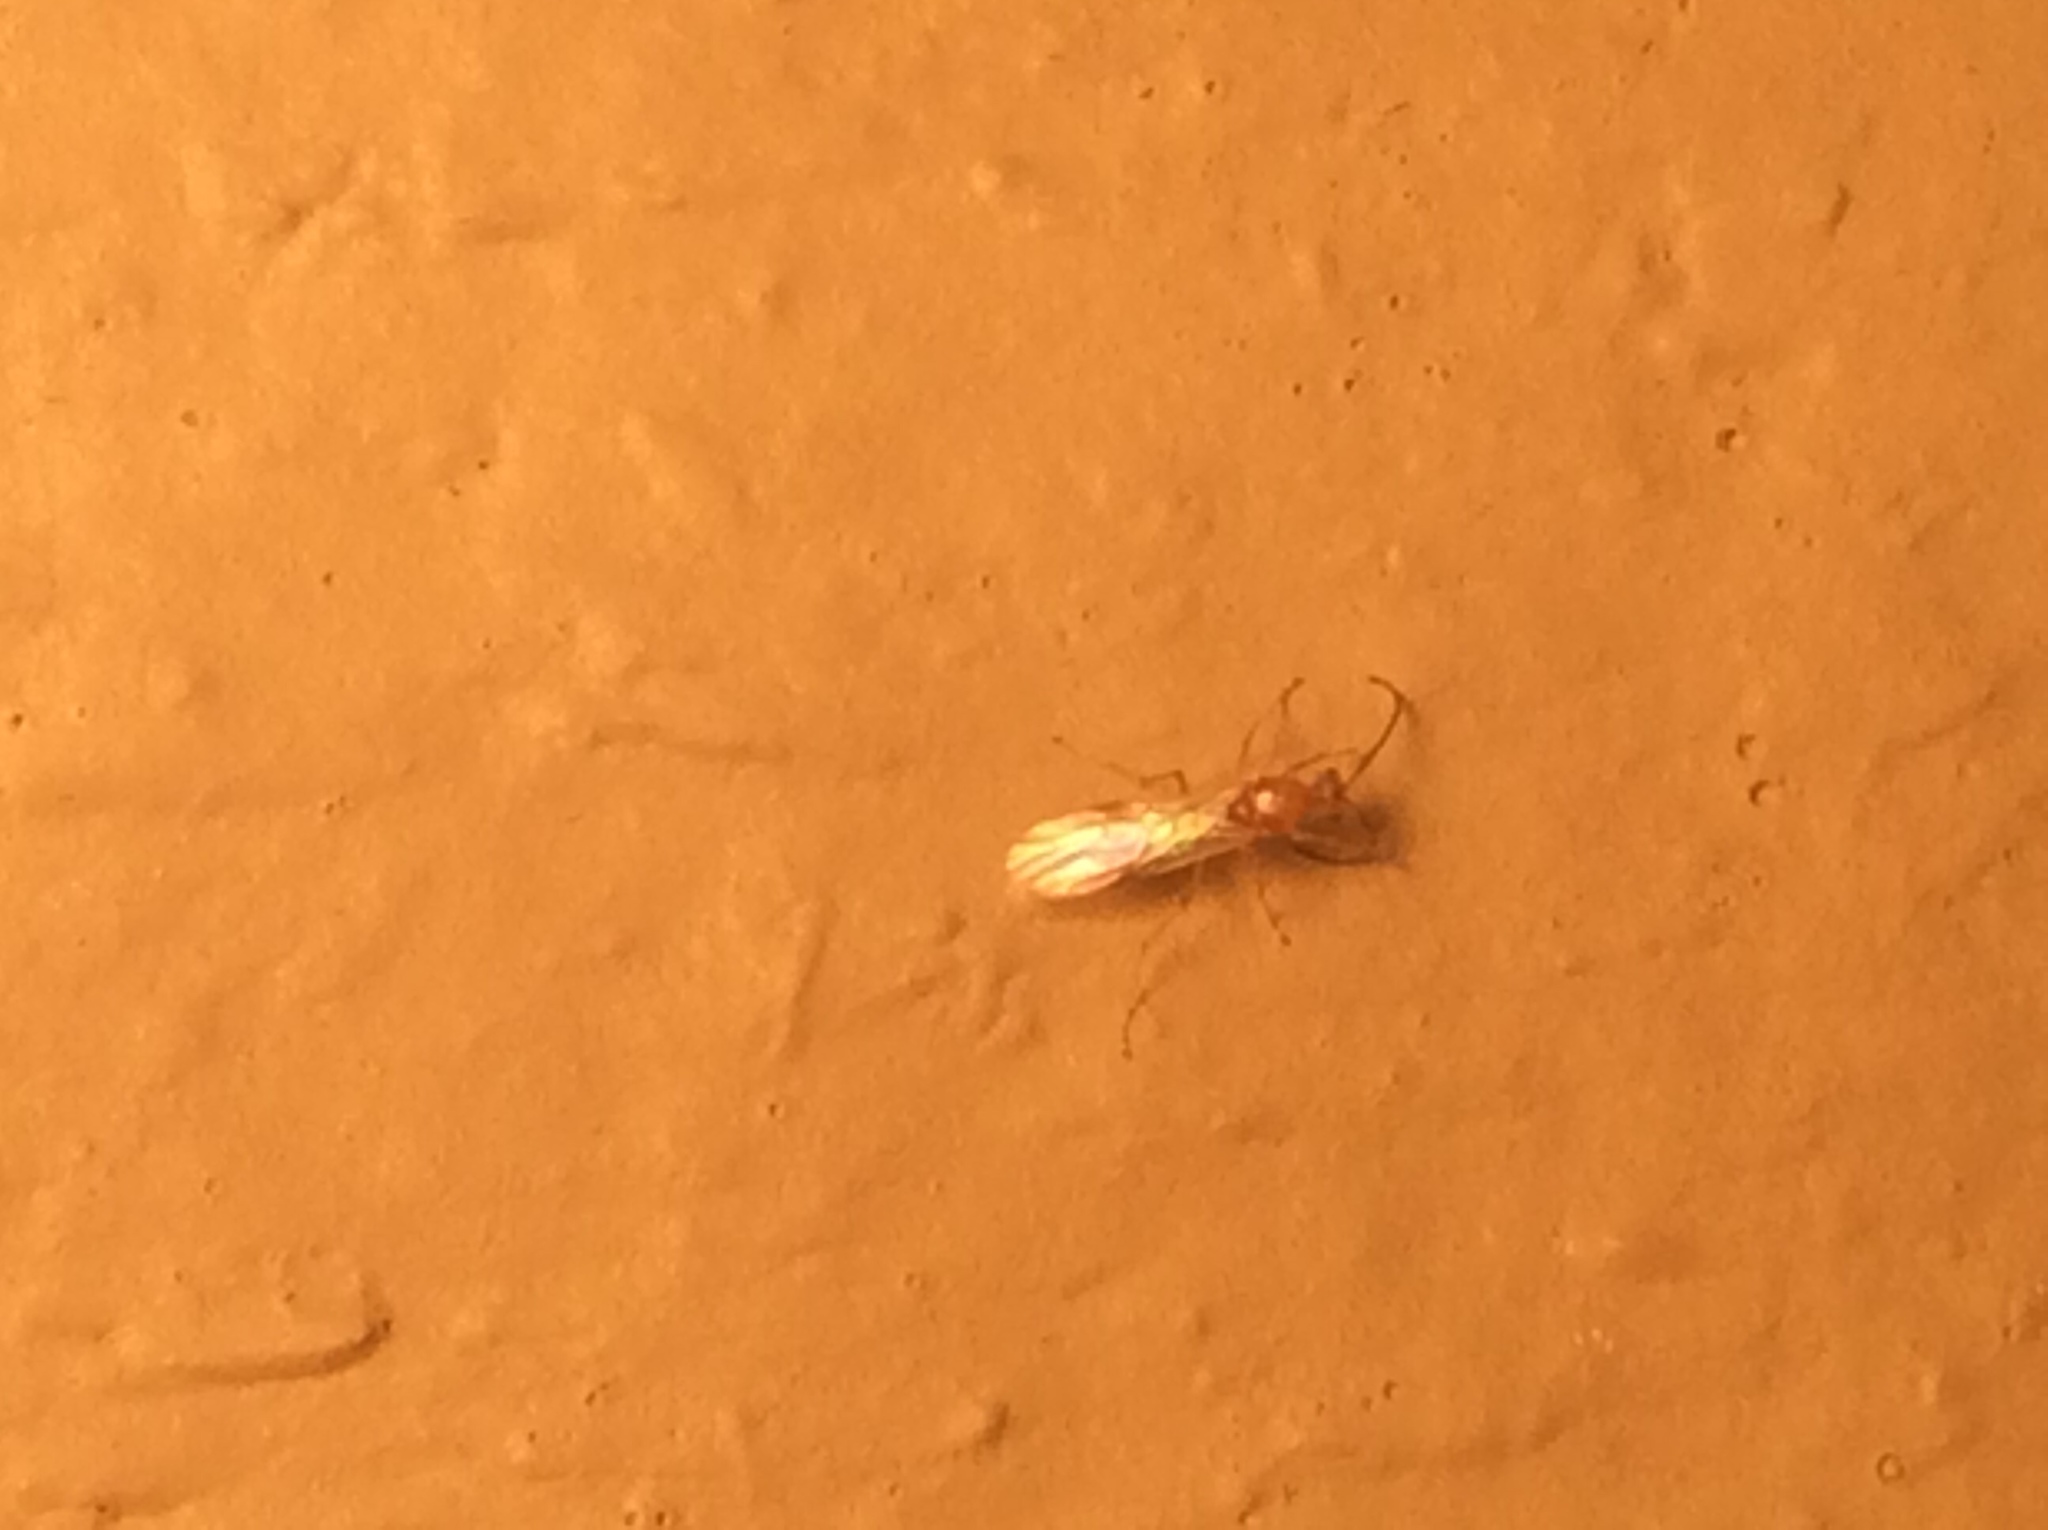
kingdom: Animalia
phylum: Arthropoda
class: Insecta
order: Hymenoptera
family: Formicidae
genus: Pachycondyla
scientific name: Pachycondyla chinensis
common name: Asian needle ant
